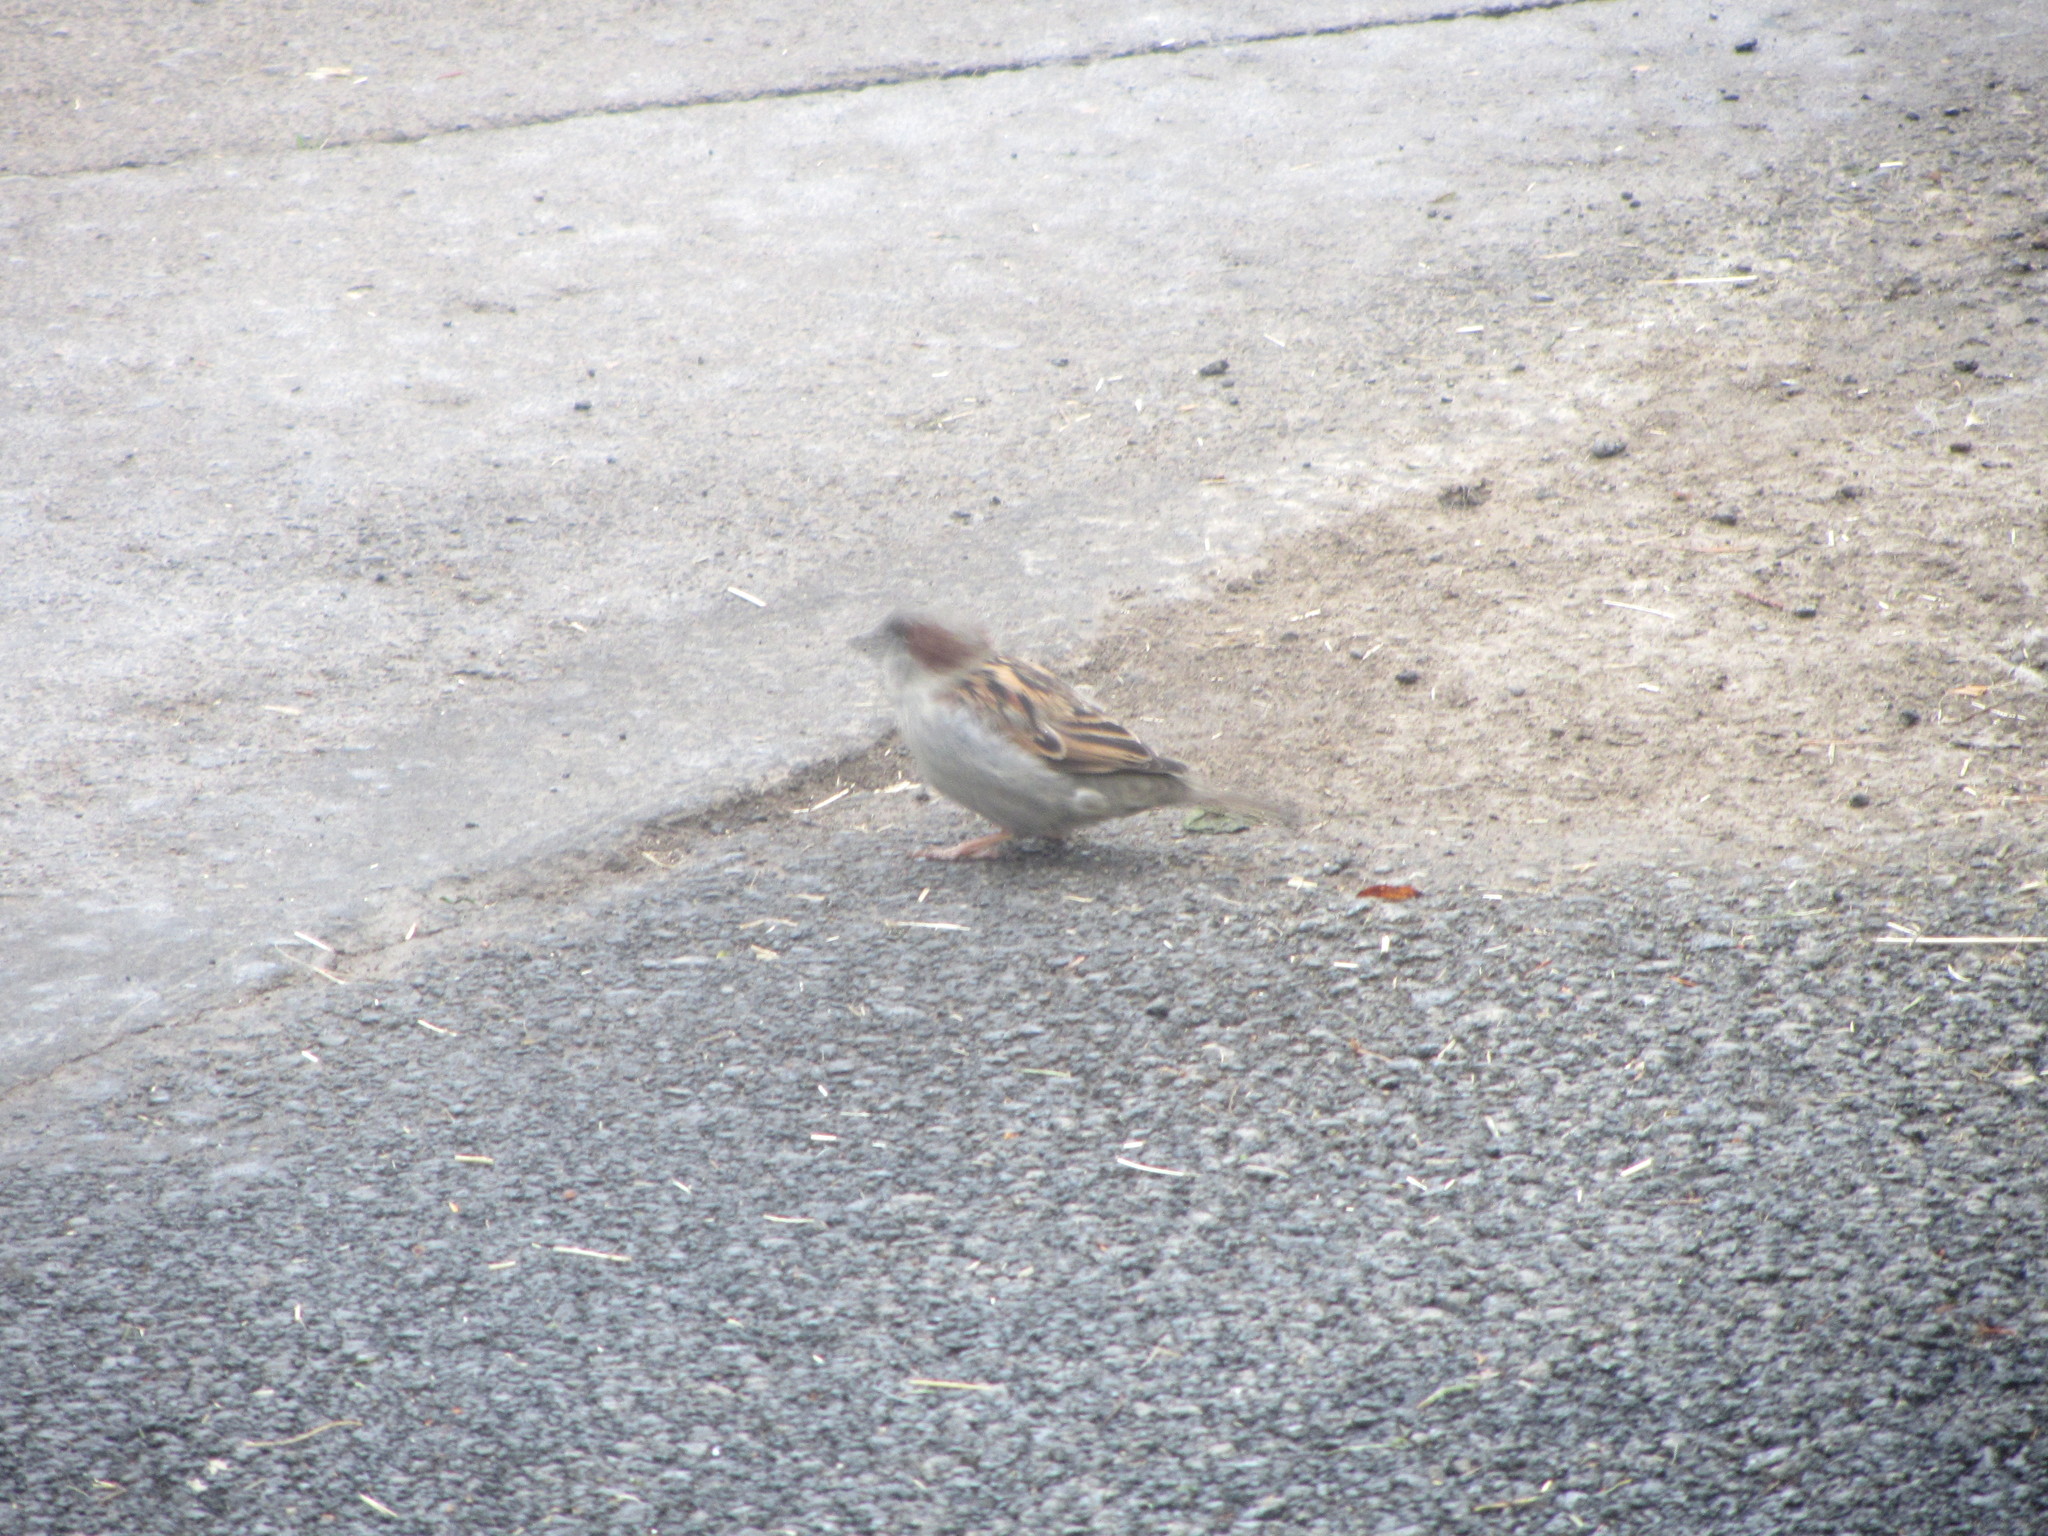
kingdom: Animalia
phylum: Chordata
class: Aves
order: Passeriformes
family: Passeridae
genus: Passer
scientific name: Passer domesticus
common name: House sparrow
